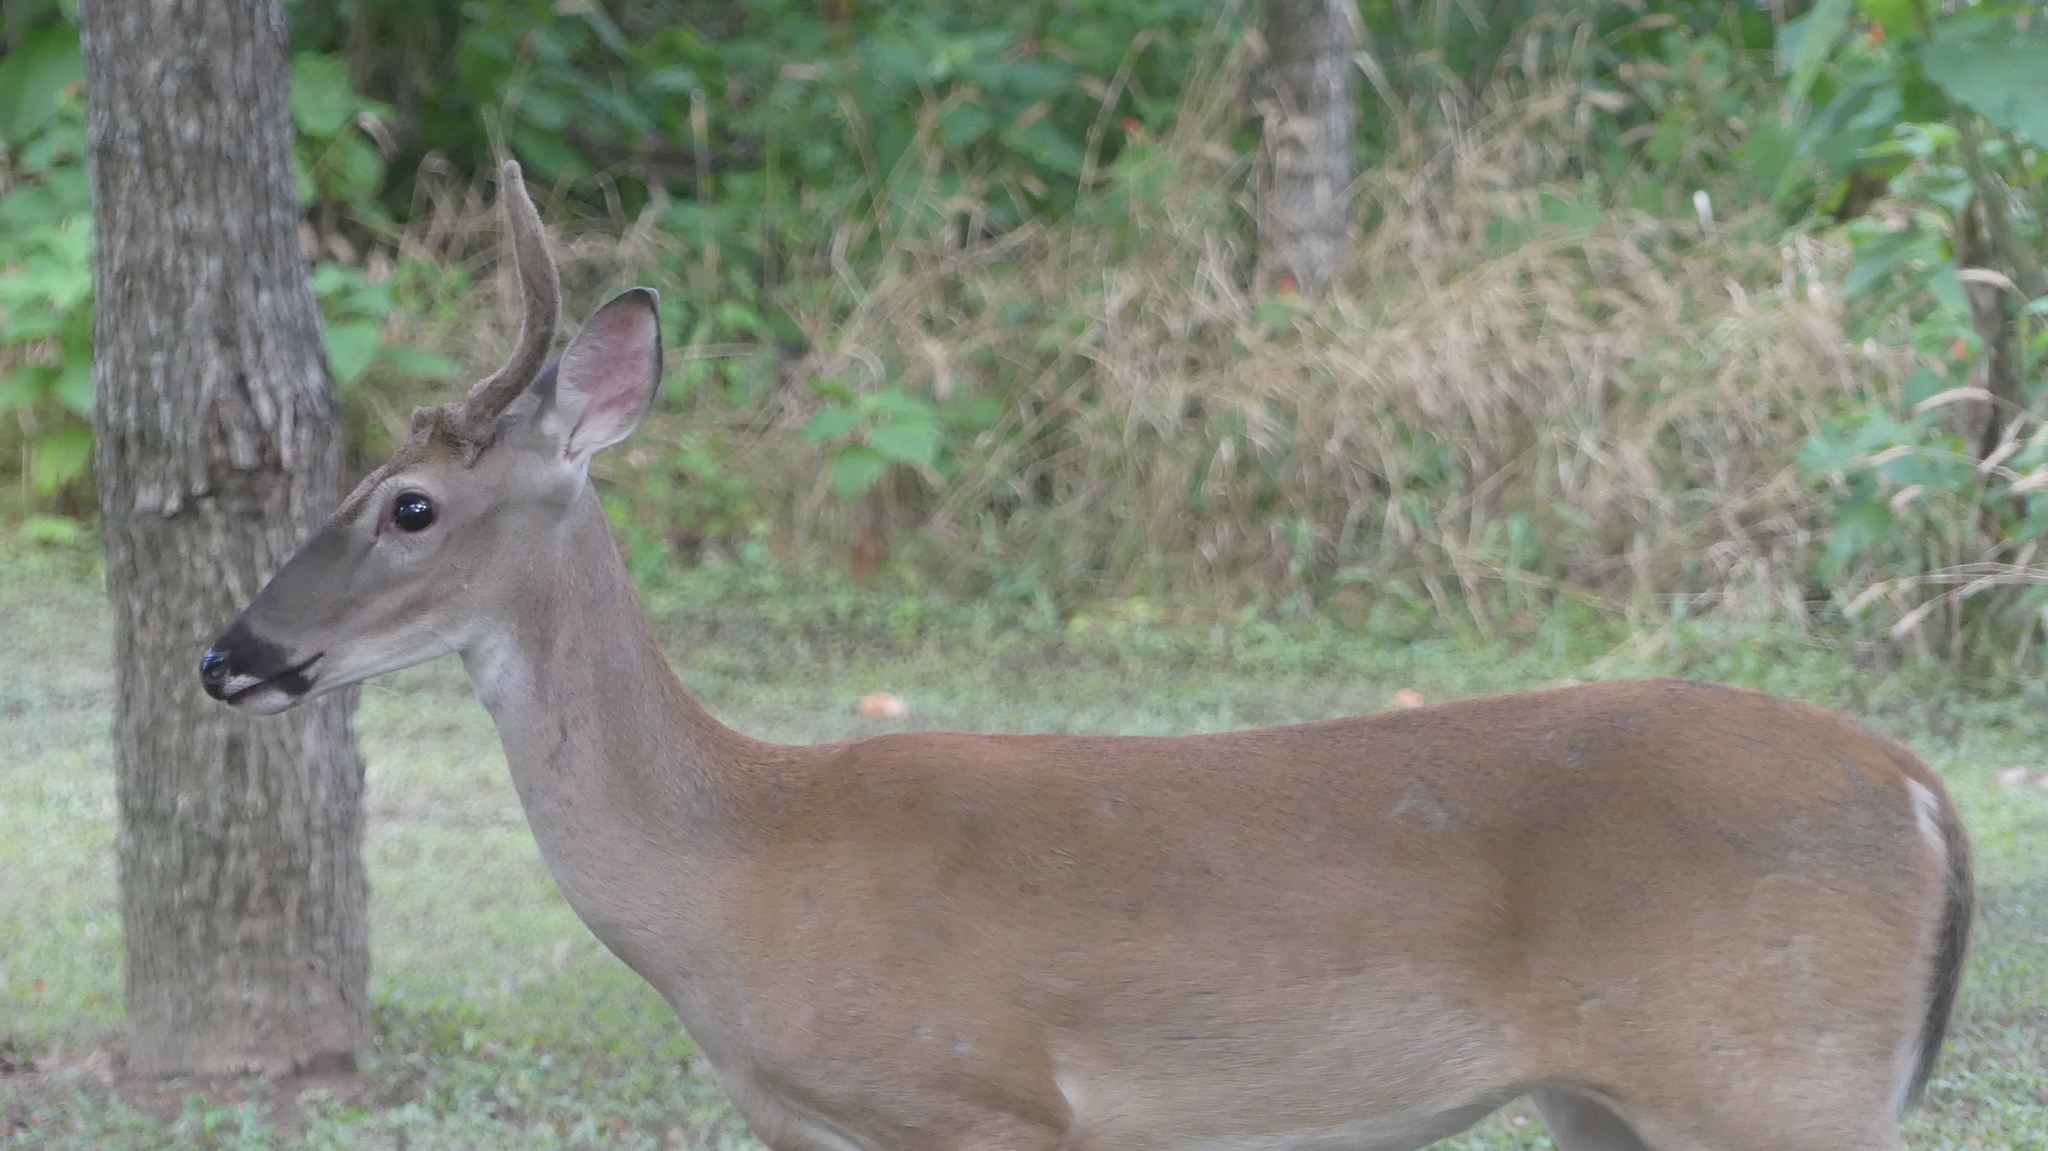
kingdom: Animalia
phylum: Chordata
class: Mammalia
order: Artiodactyla
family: Cervidae
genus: Odocoileus
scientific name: Odocoileus virginianus
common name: White-tailed deer
